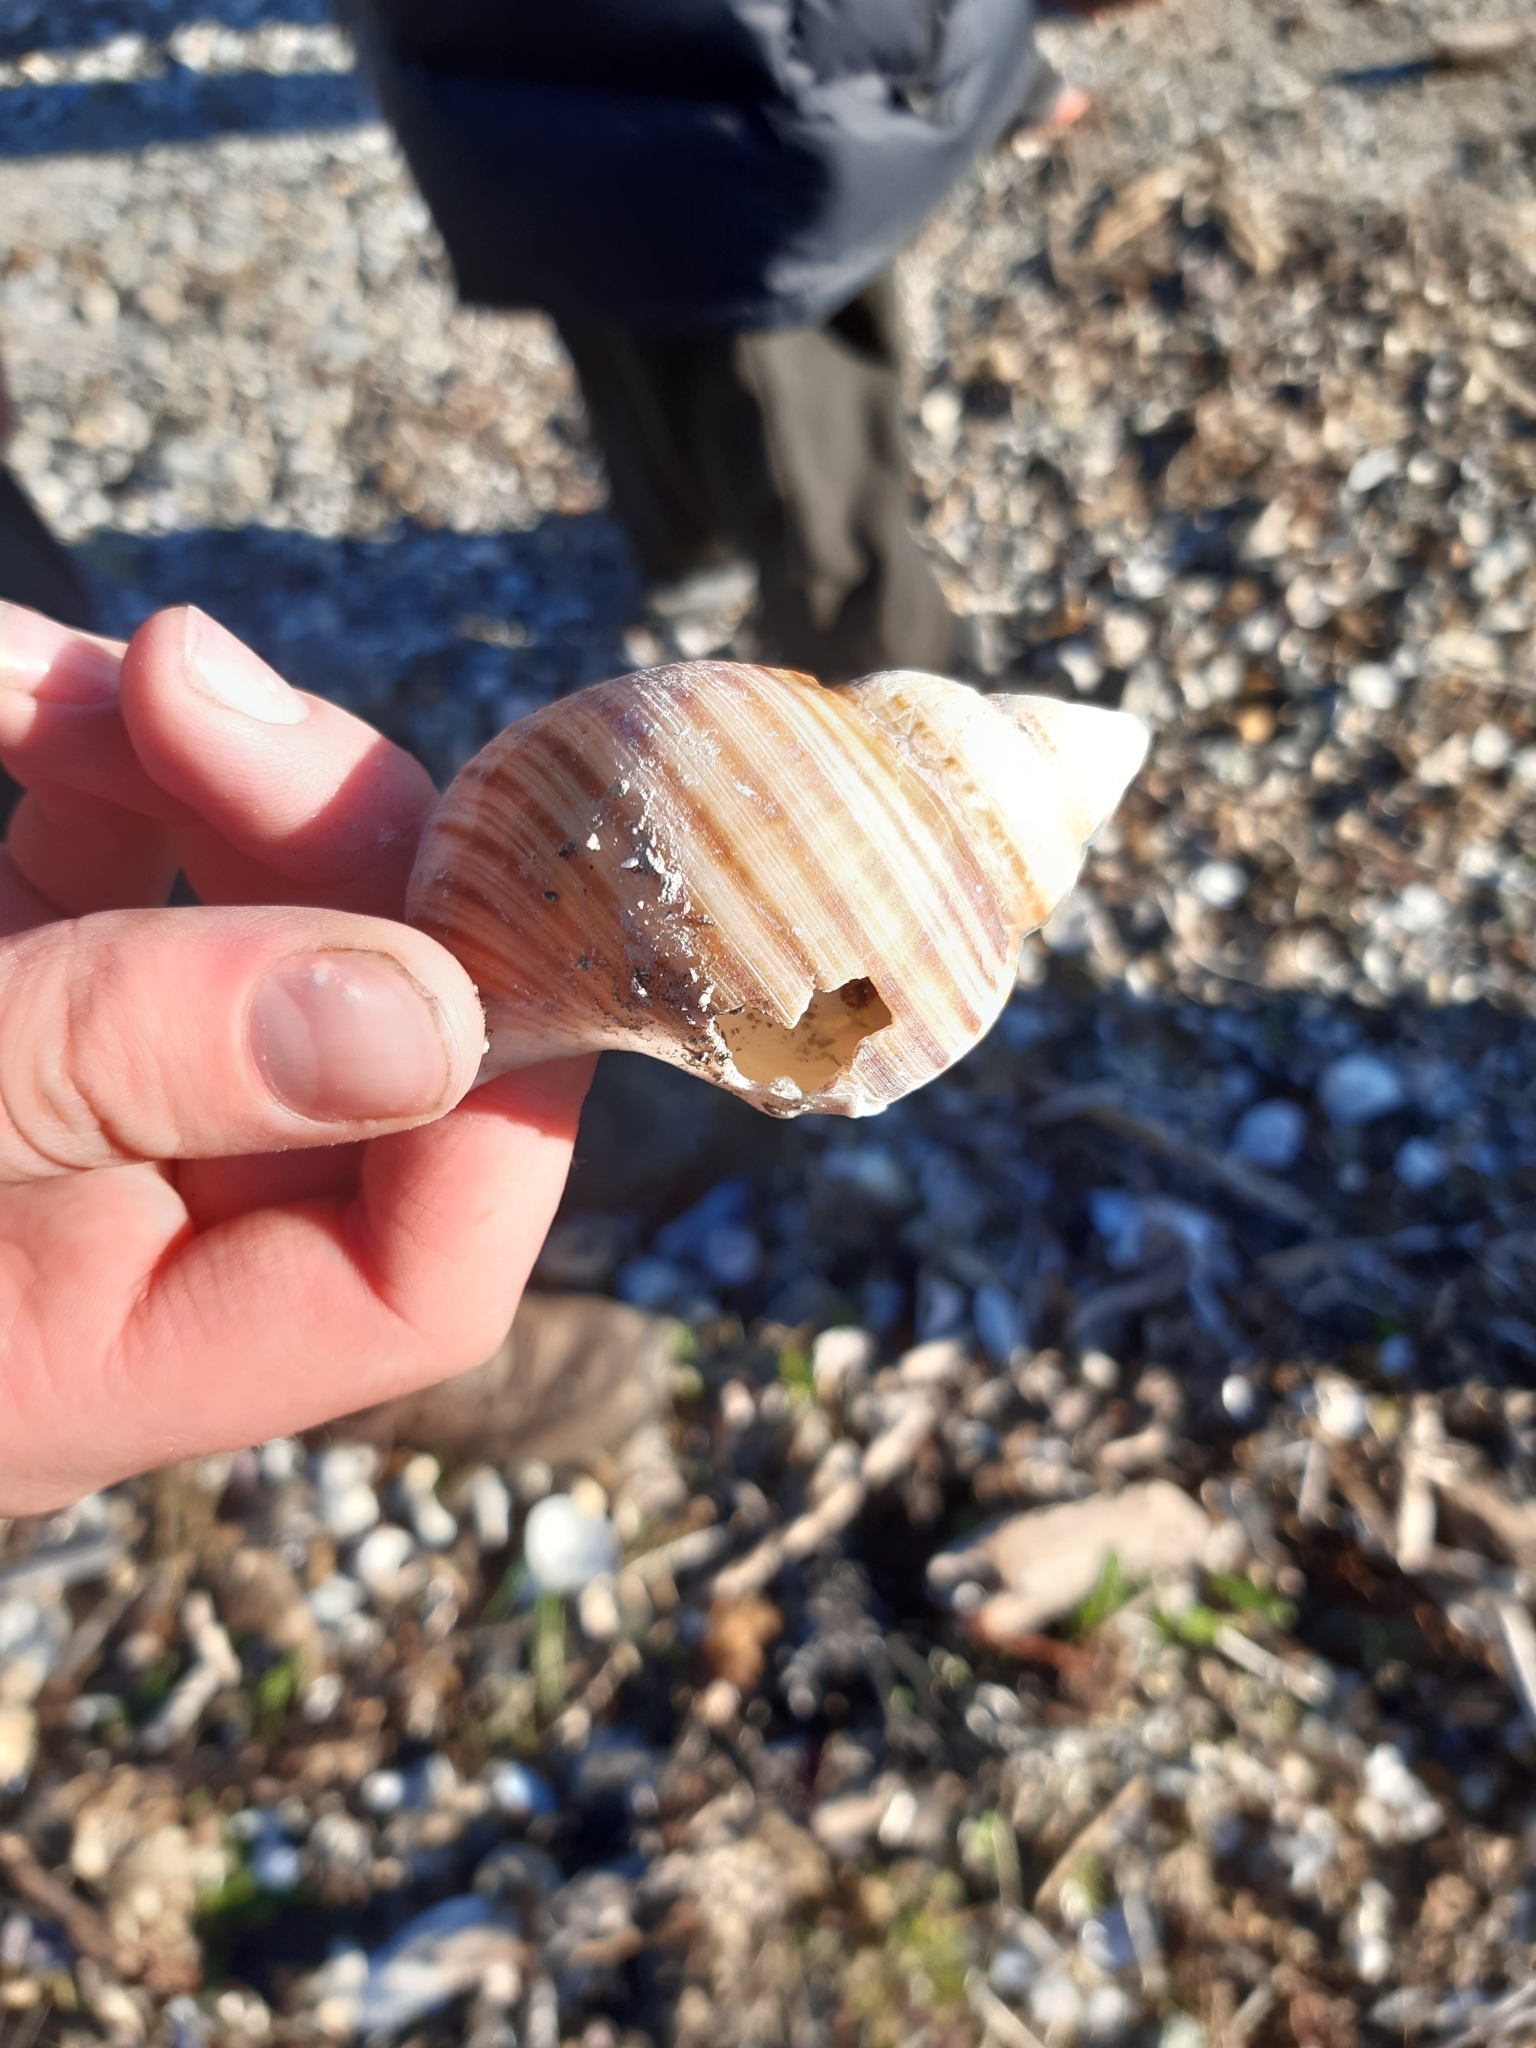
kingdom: Animalia
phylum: Mollusca
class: Gastropoda
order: Littorinimorpha
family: Cymatiidae
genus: Argobuccinum
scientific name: Argobuccinum pustulosum
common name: Pustular triton
